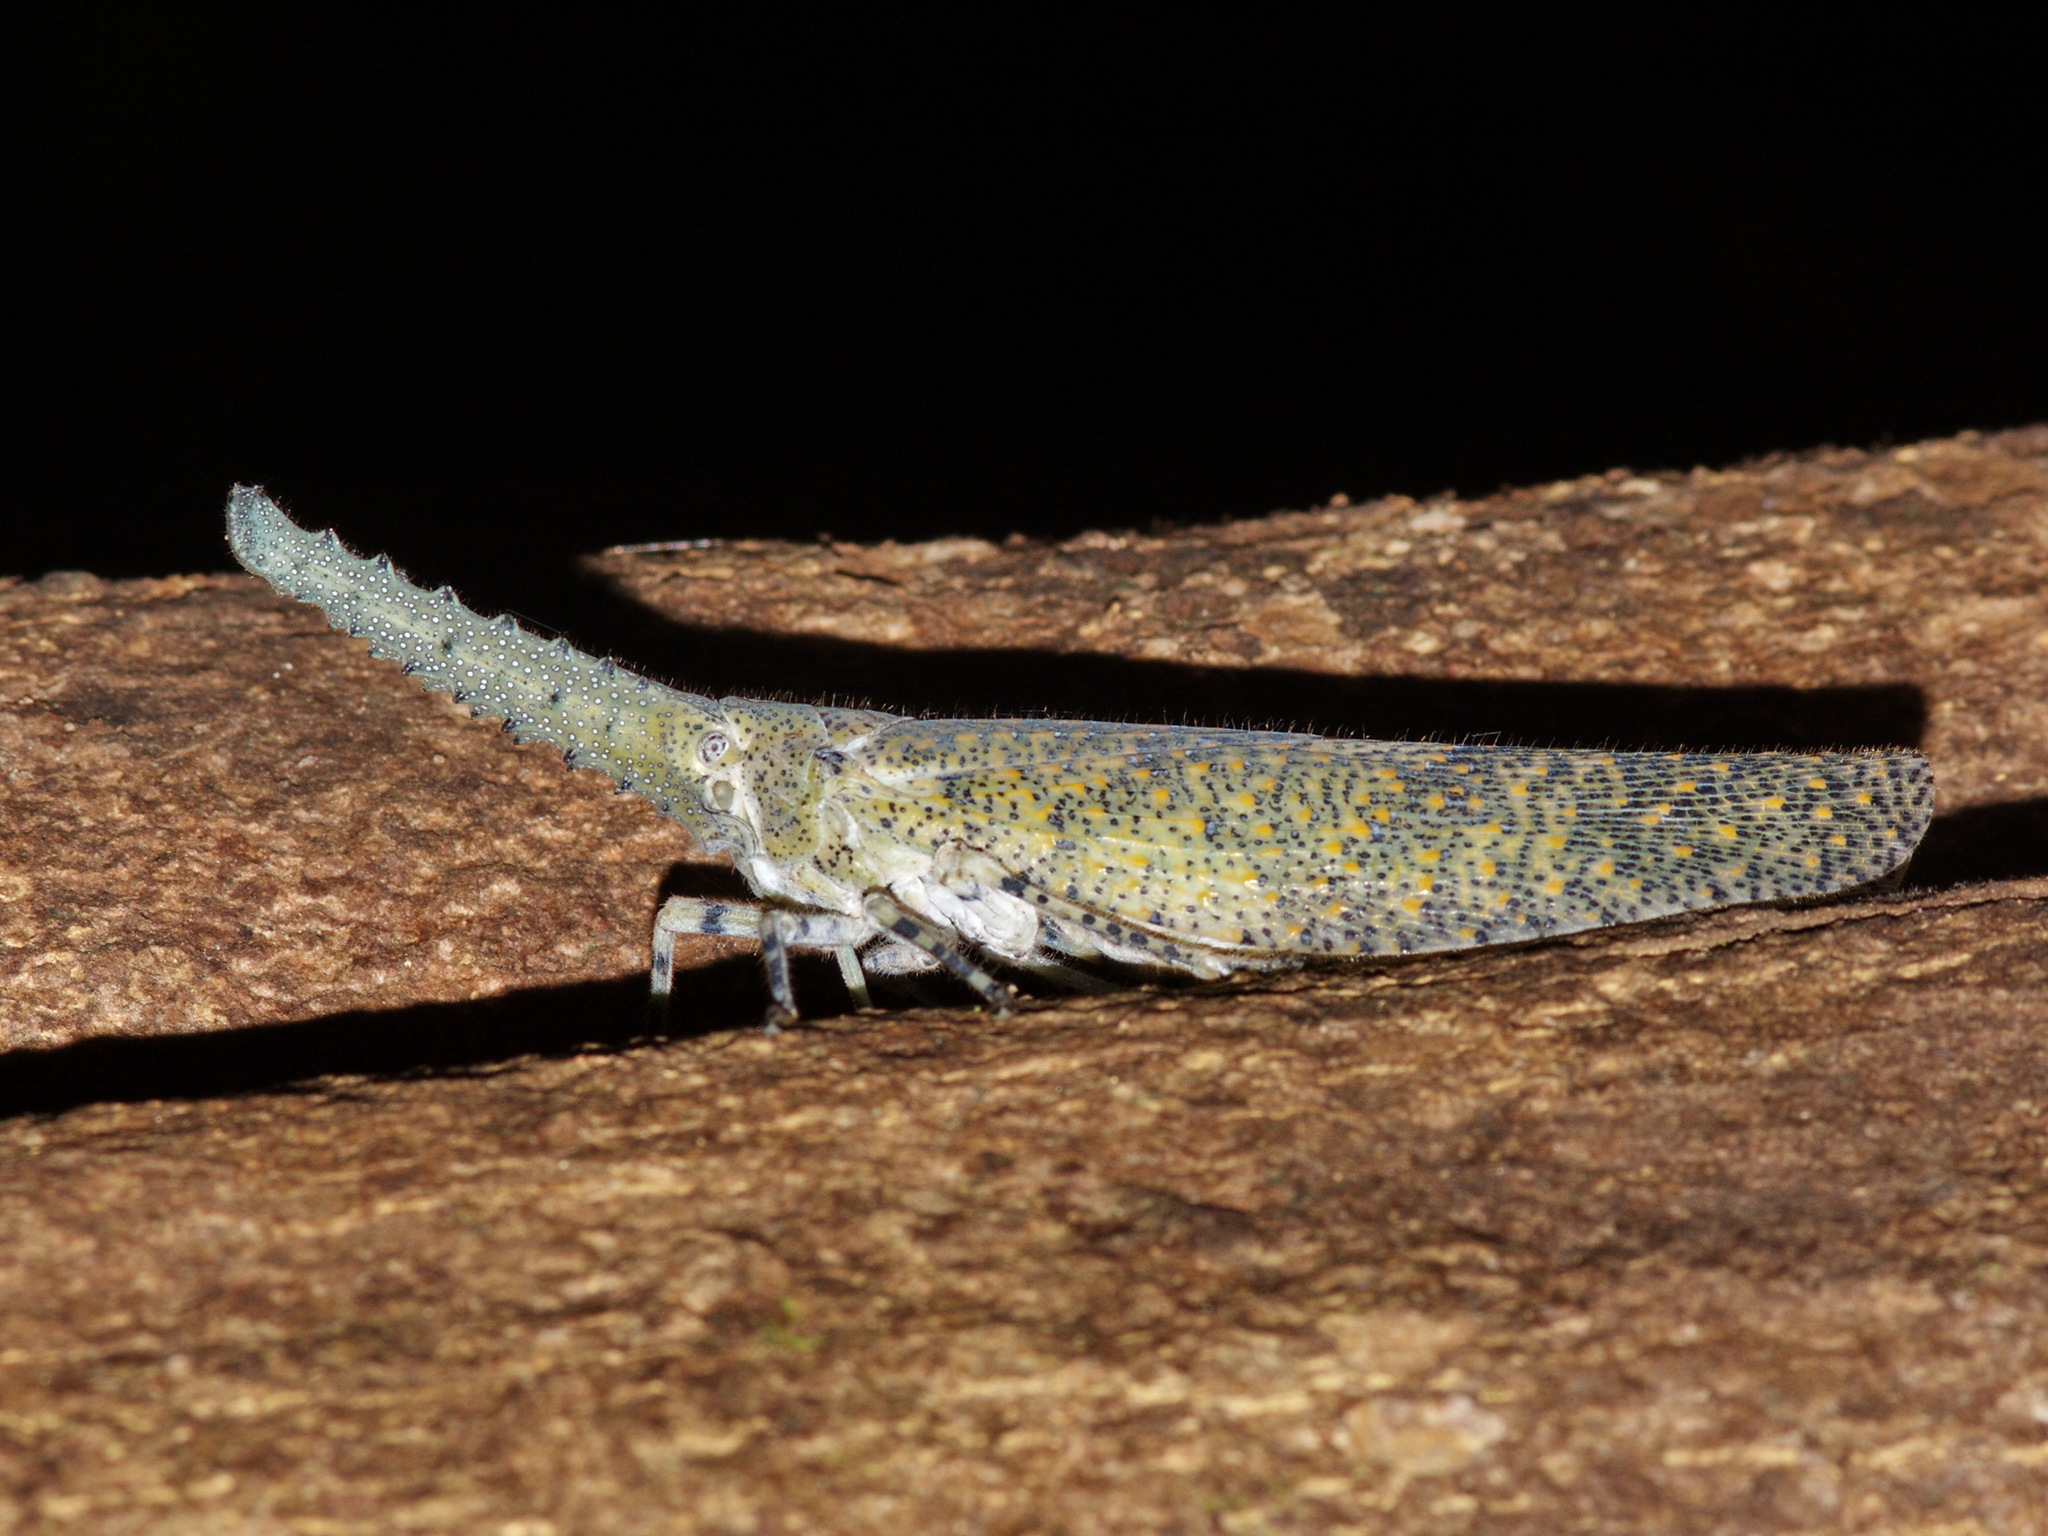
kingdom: Animalia
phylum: Arthropoda
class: Insecta
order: Hemiptera
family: Fulgoridae
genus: Zanna
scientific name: Zanna nobilis
